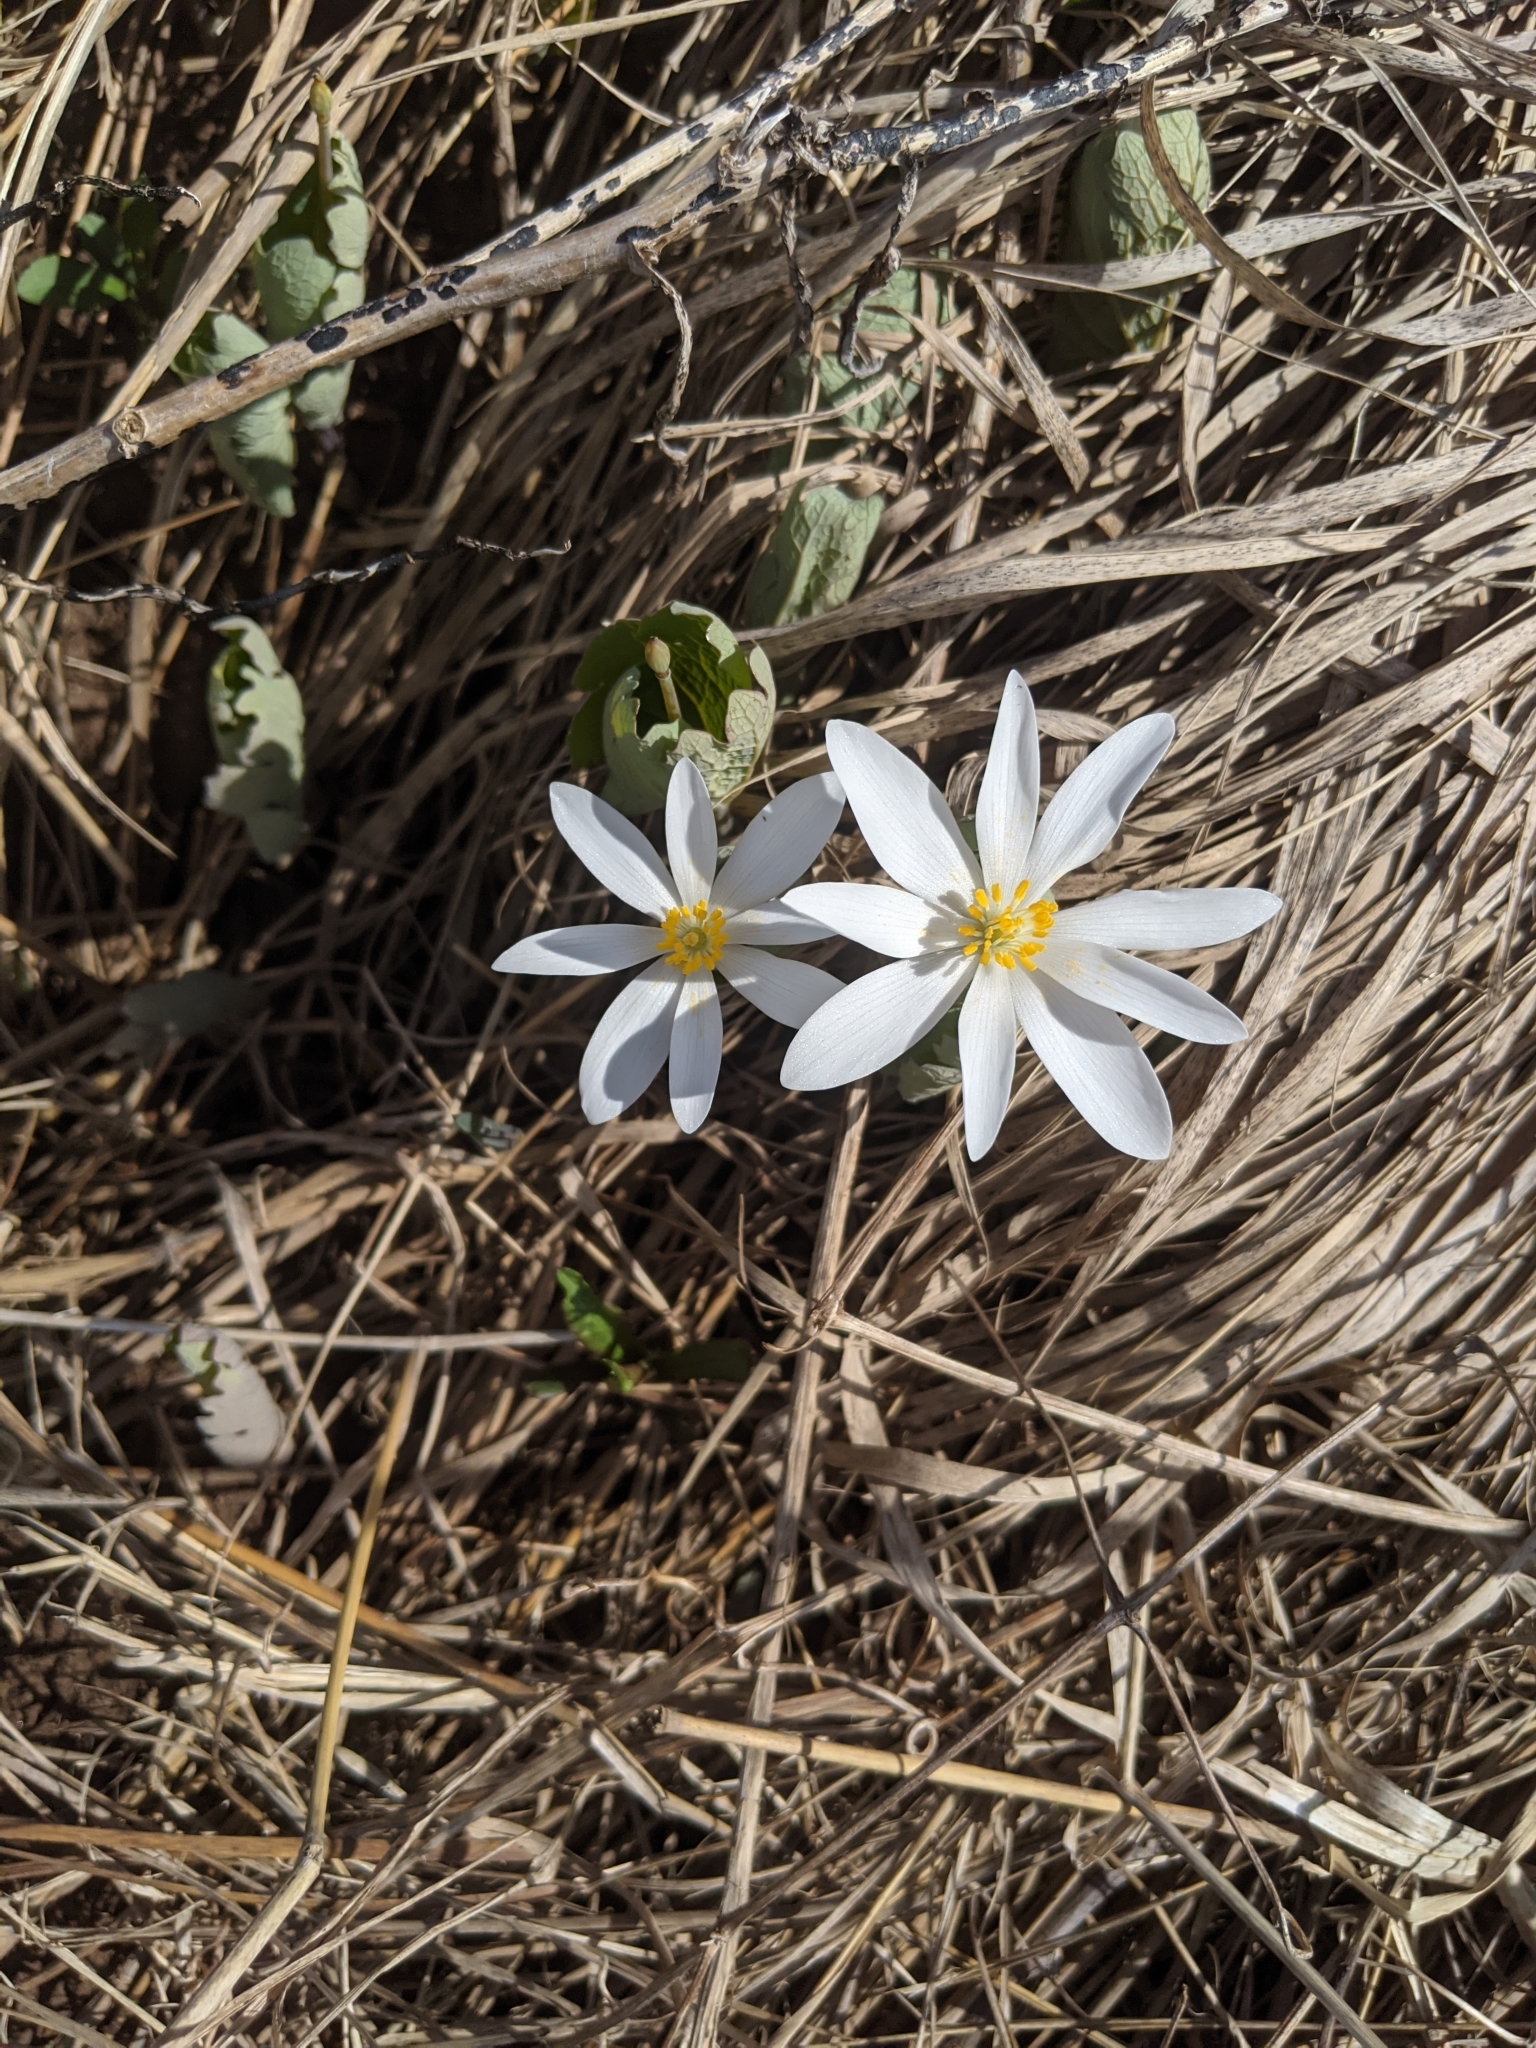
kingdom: Plantae
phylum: Tracheophyta
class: Magnoliopsida
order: Ranunculales
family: Papaveraceae
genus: Sanguinaria
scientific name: Sanguinaria canadensis
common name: Bloodroot
